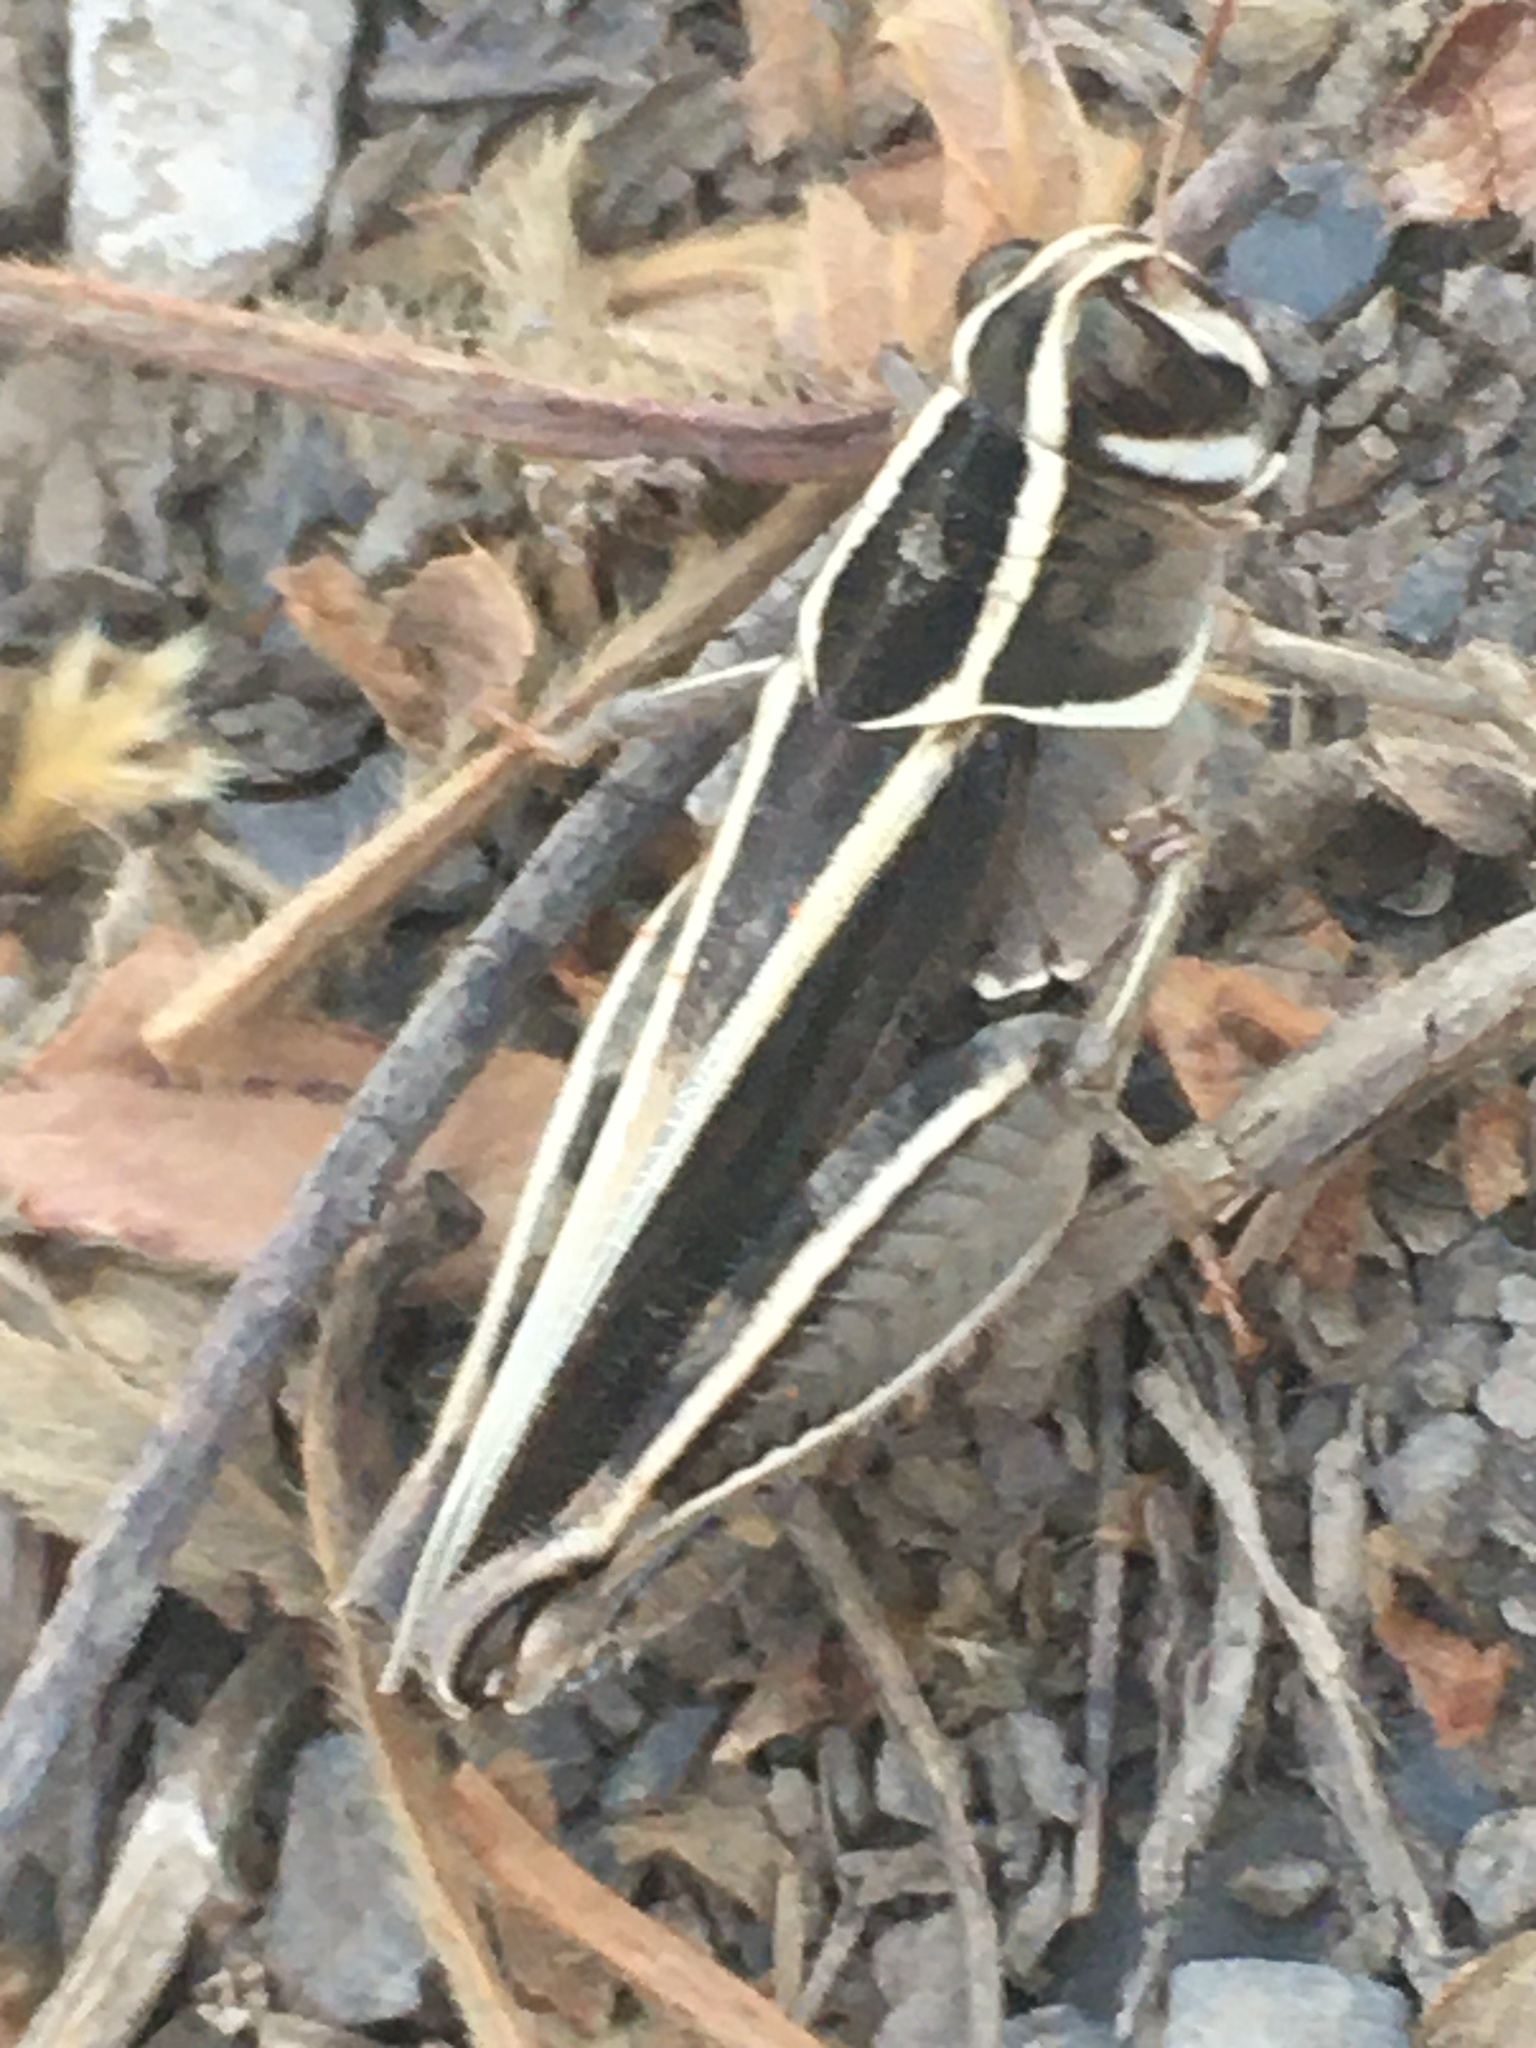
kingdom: Animalia
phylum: Arthropoda
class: Insecta
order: Orthoptera
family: Acrididae
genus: Calliptamus
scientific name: Calliptamus barbarus
